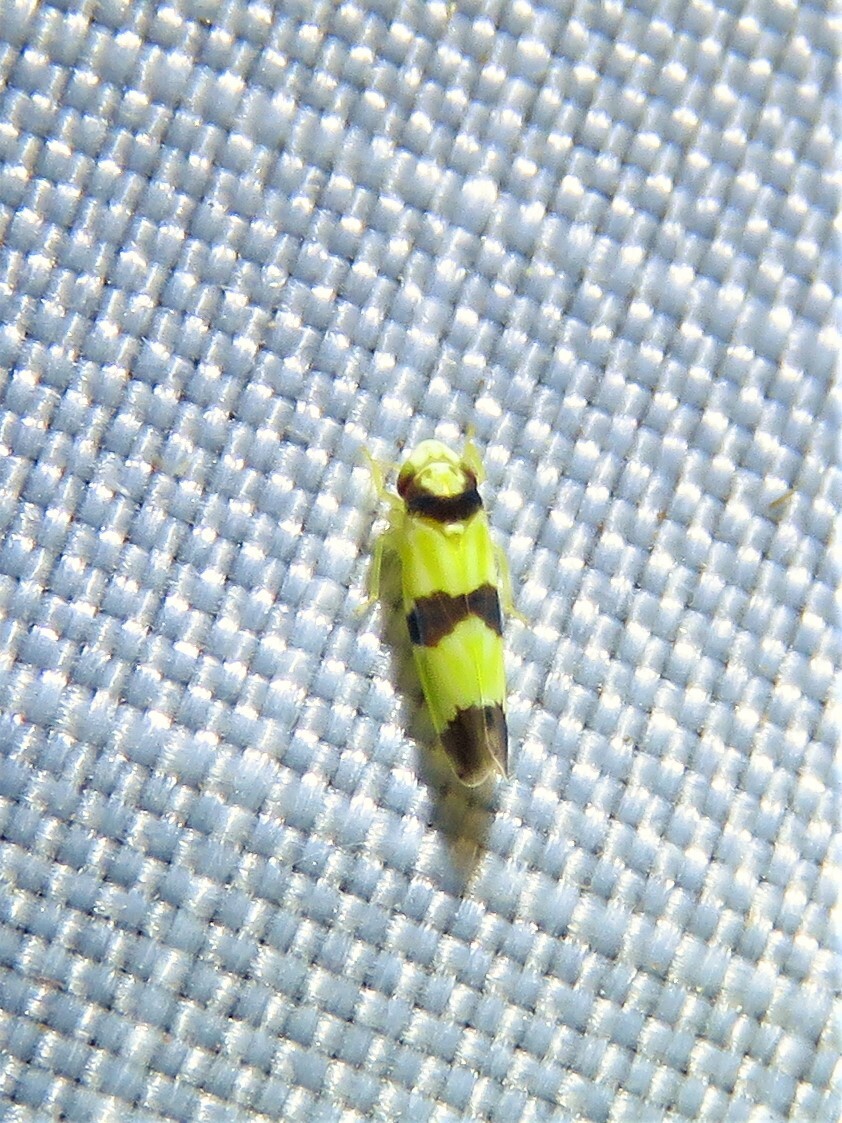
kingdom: Animalia
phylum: Arthropoda
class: Insecta
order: Hemiptera
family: Cicadellidae
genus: Erythroneura
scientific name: Erythroneura calycula
